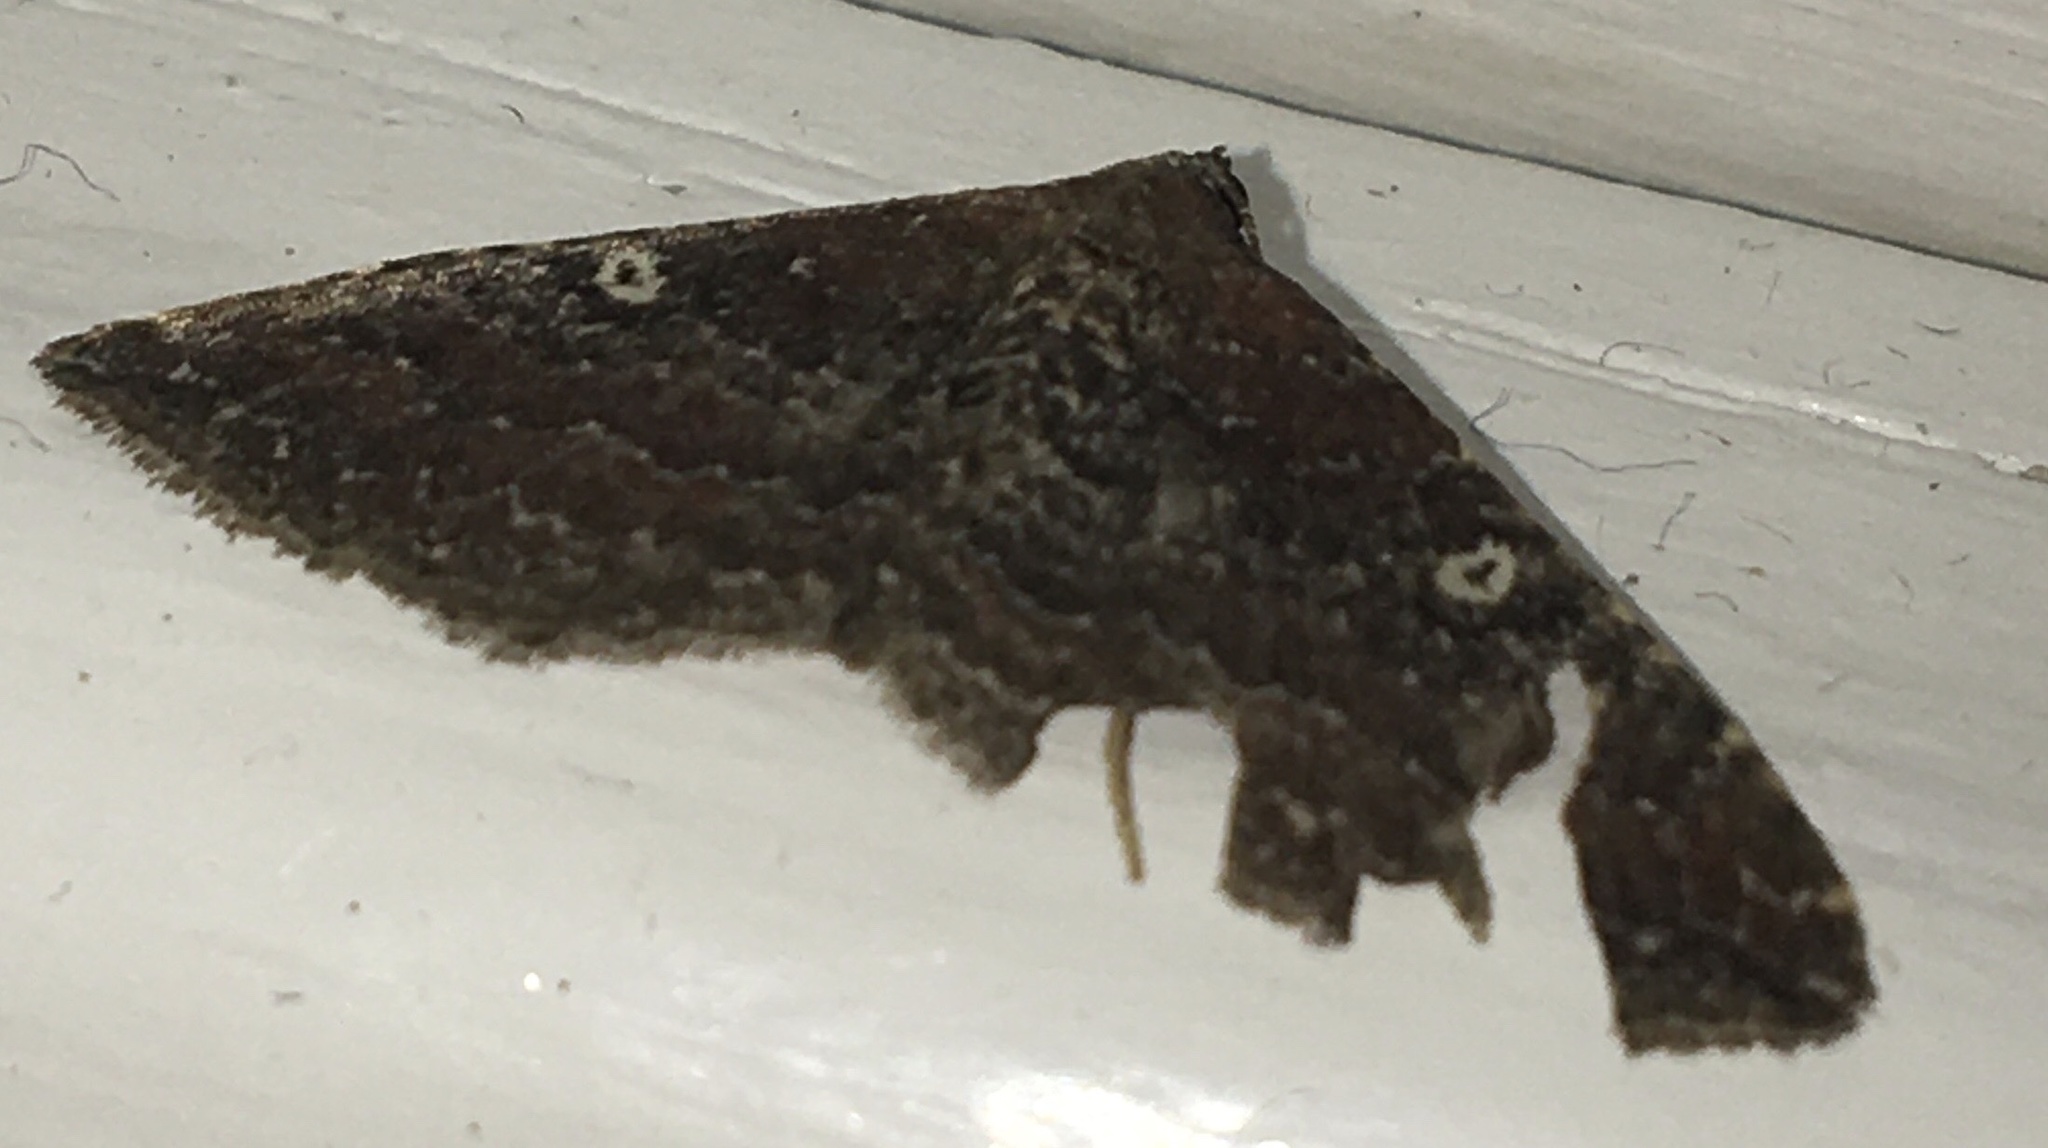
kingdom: Animalia
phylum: Arthropoda
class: Insecta
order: Lepidoptera
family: Geometridae
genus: Orthonama
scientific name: Orthonama obstipata
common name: The gem
